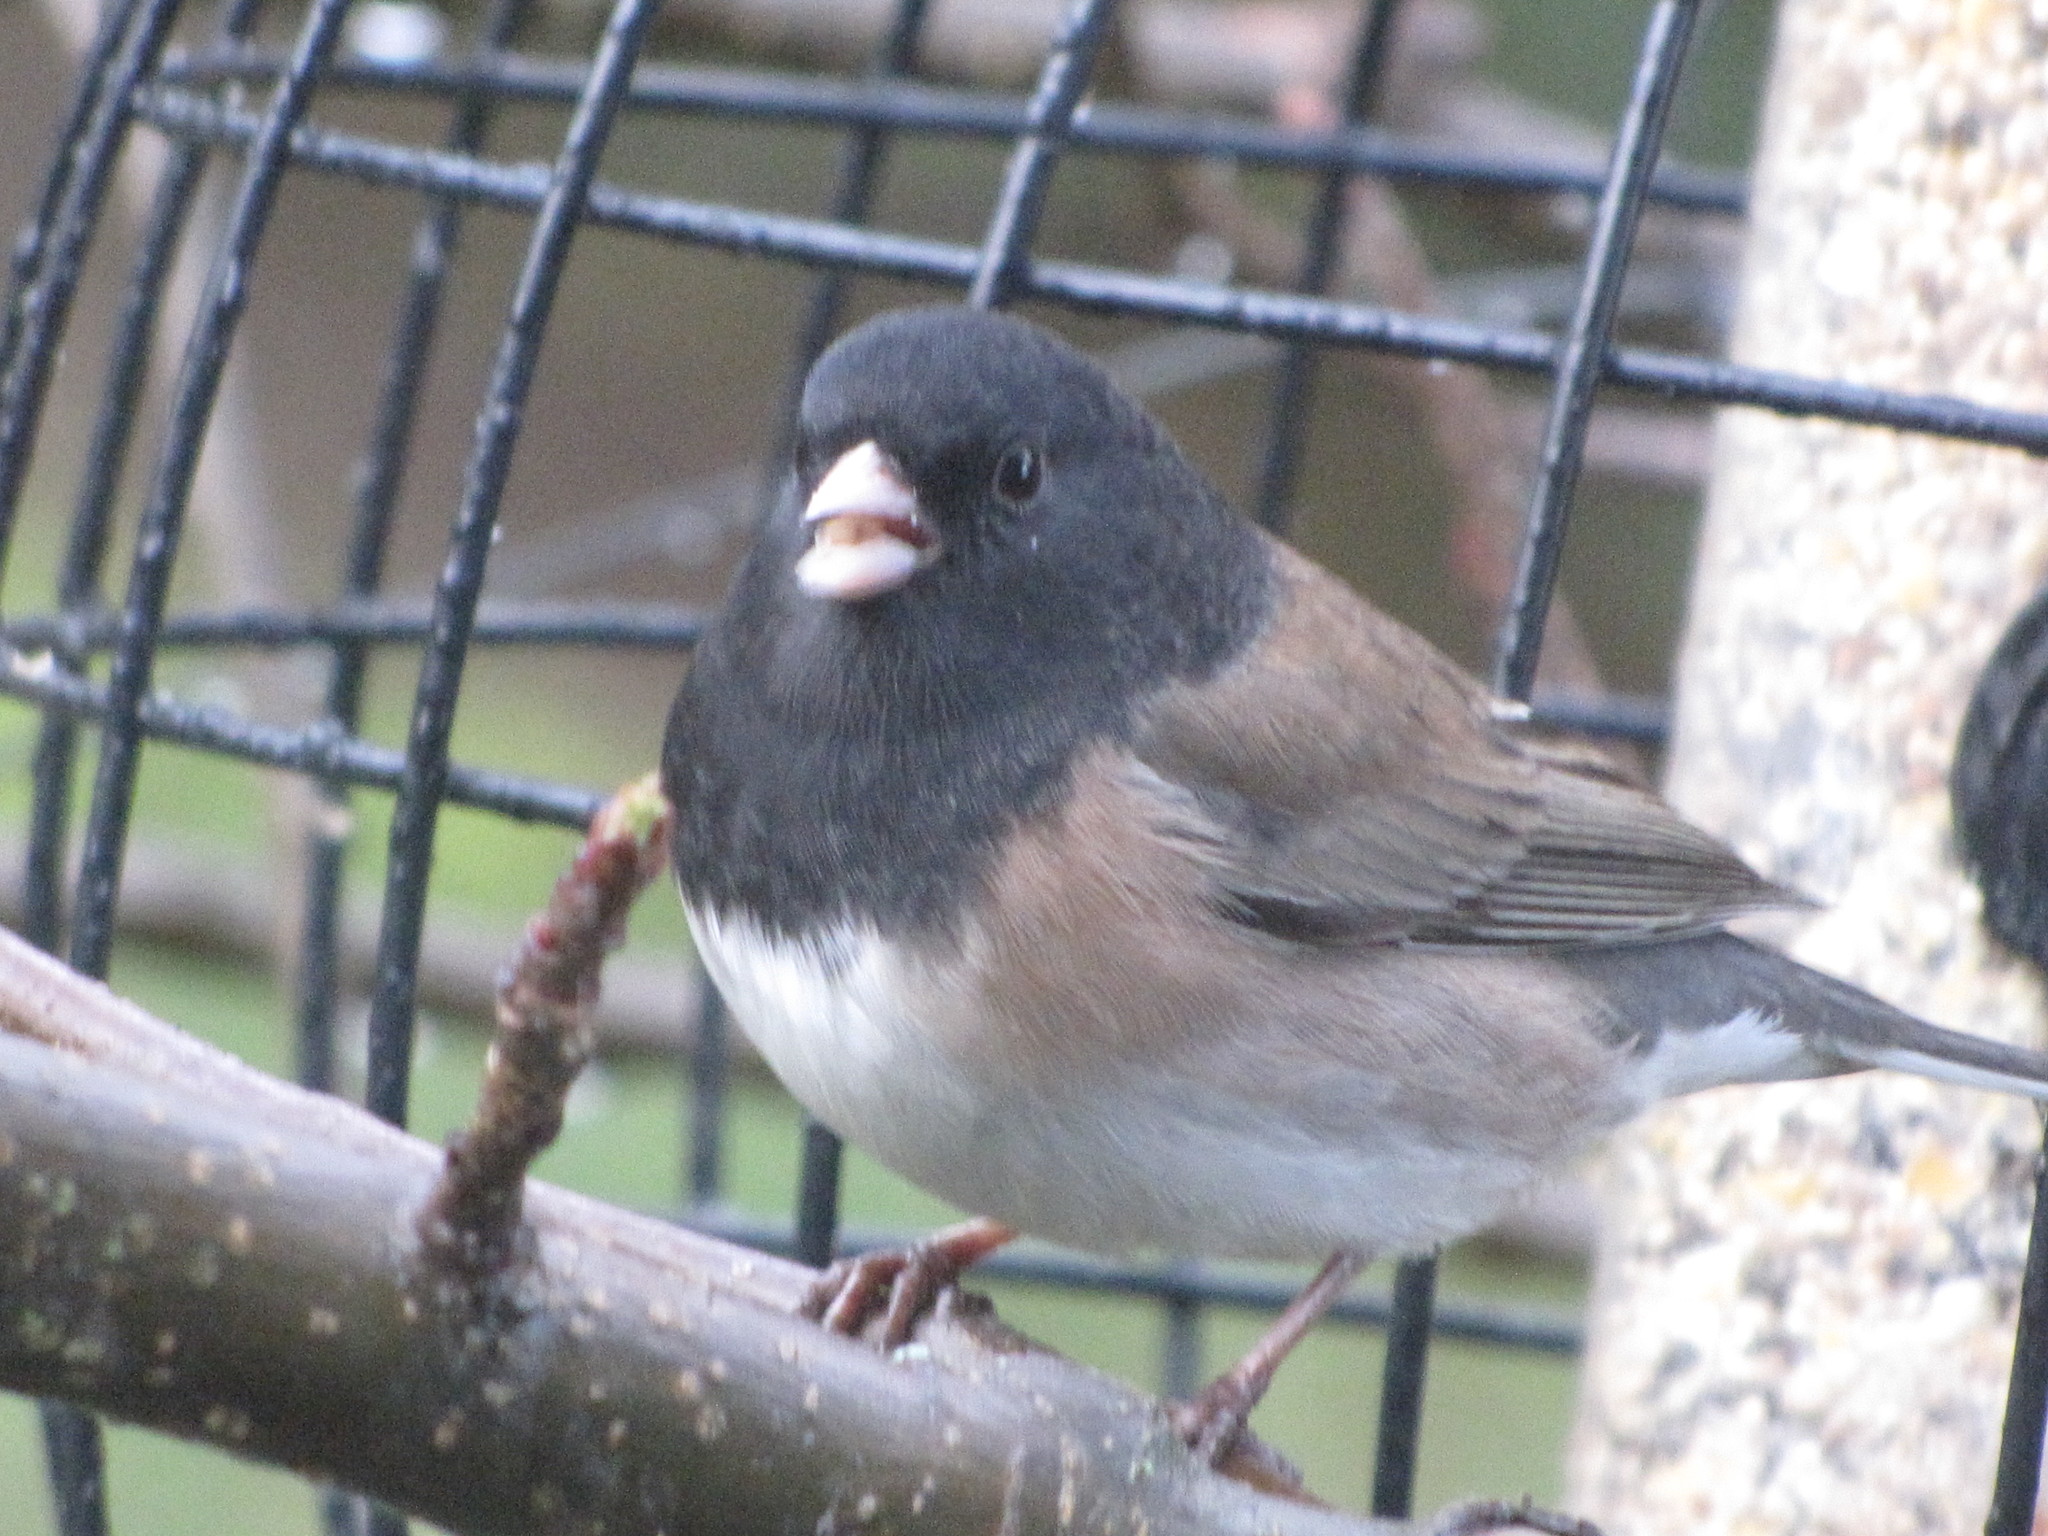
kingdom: Animalia
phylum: Chordata
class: Aves
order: Passeriformes
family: Passerellidae
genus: Junco
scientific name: Junco hyemalis
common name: Dark-eyed junco
